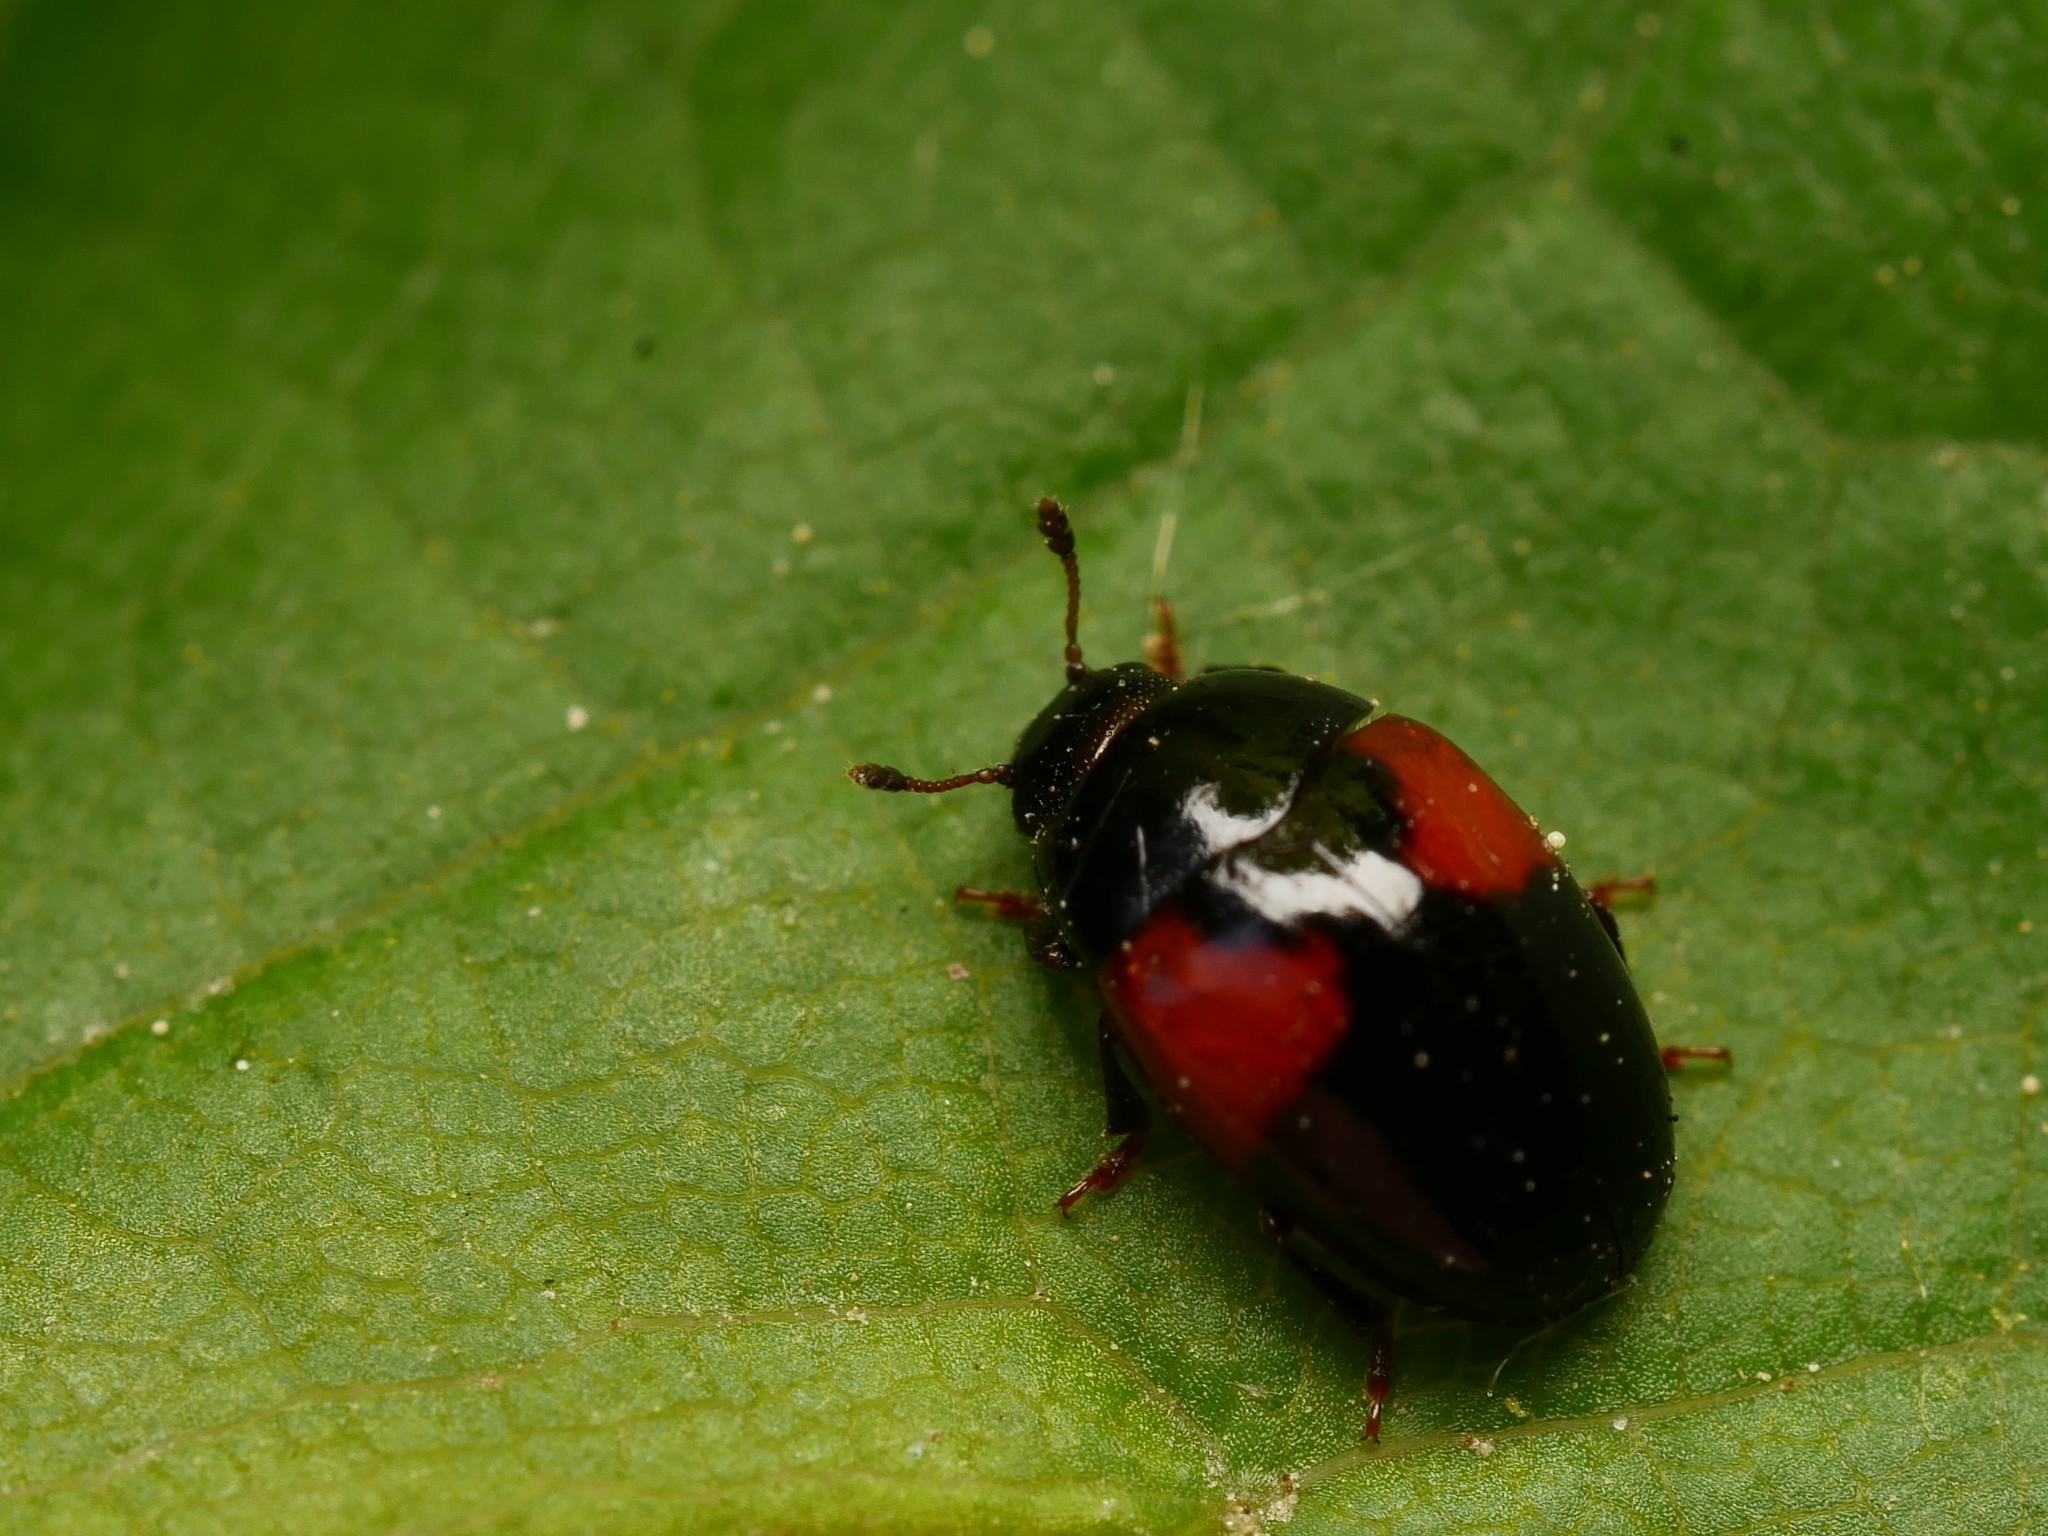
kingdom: Animalia
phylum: Arthropoda
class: Insecta
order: Coleoptera
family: Erotylidae
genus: Tritoma
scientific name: Tritoma bipustulata
